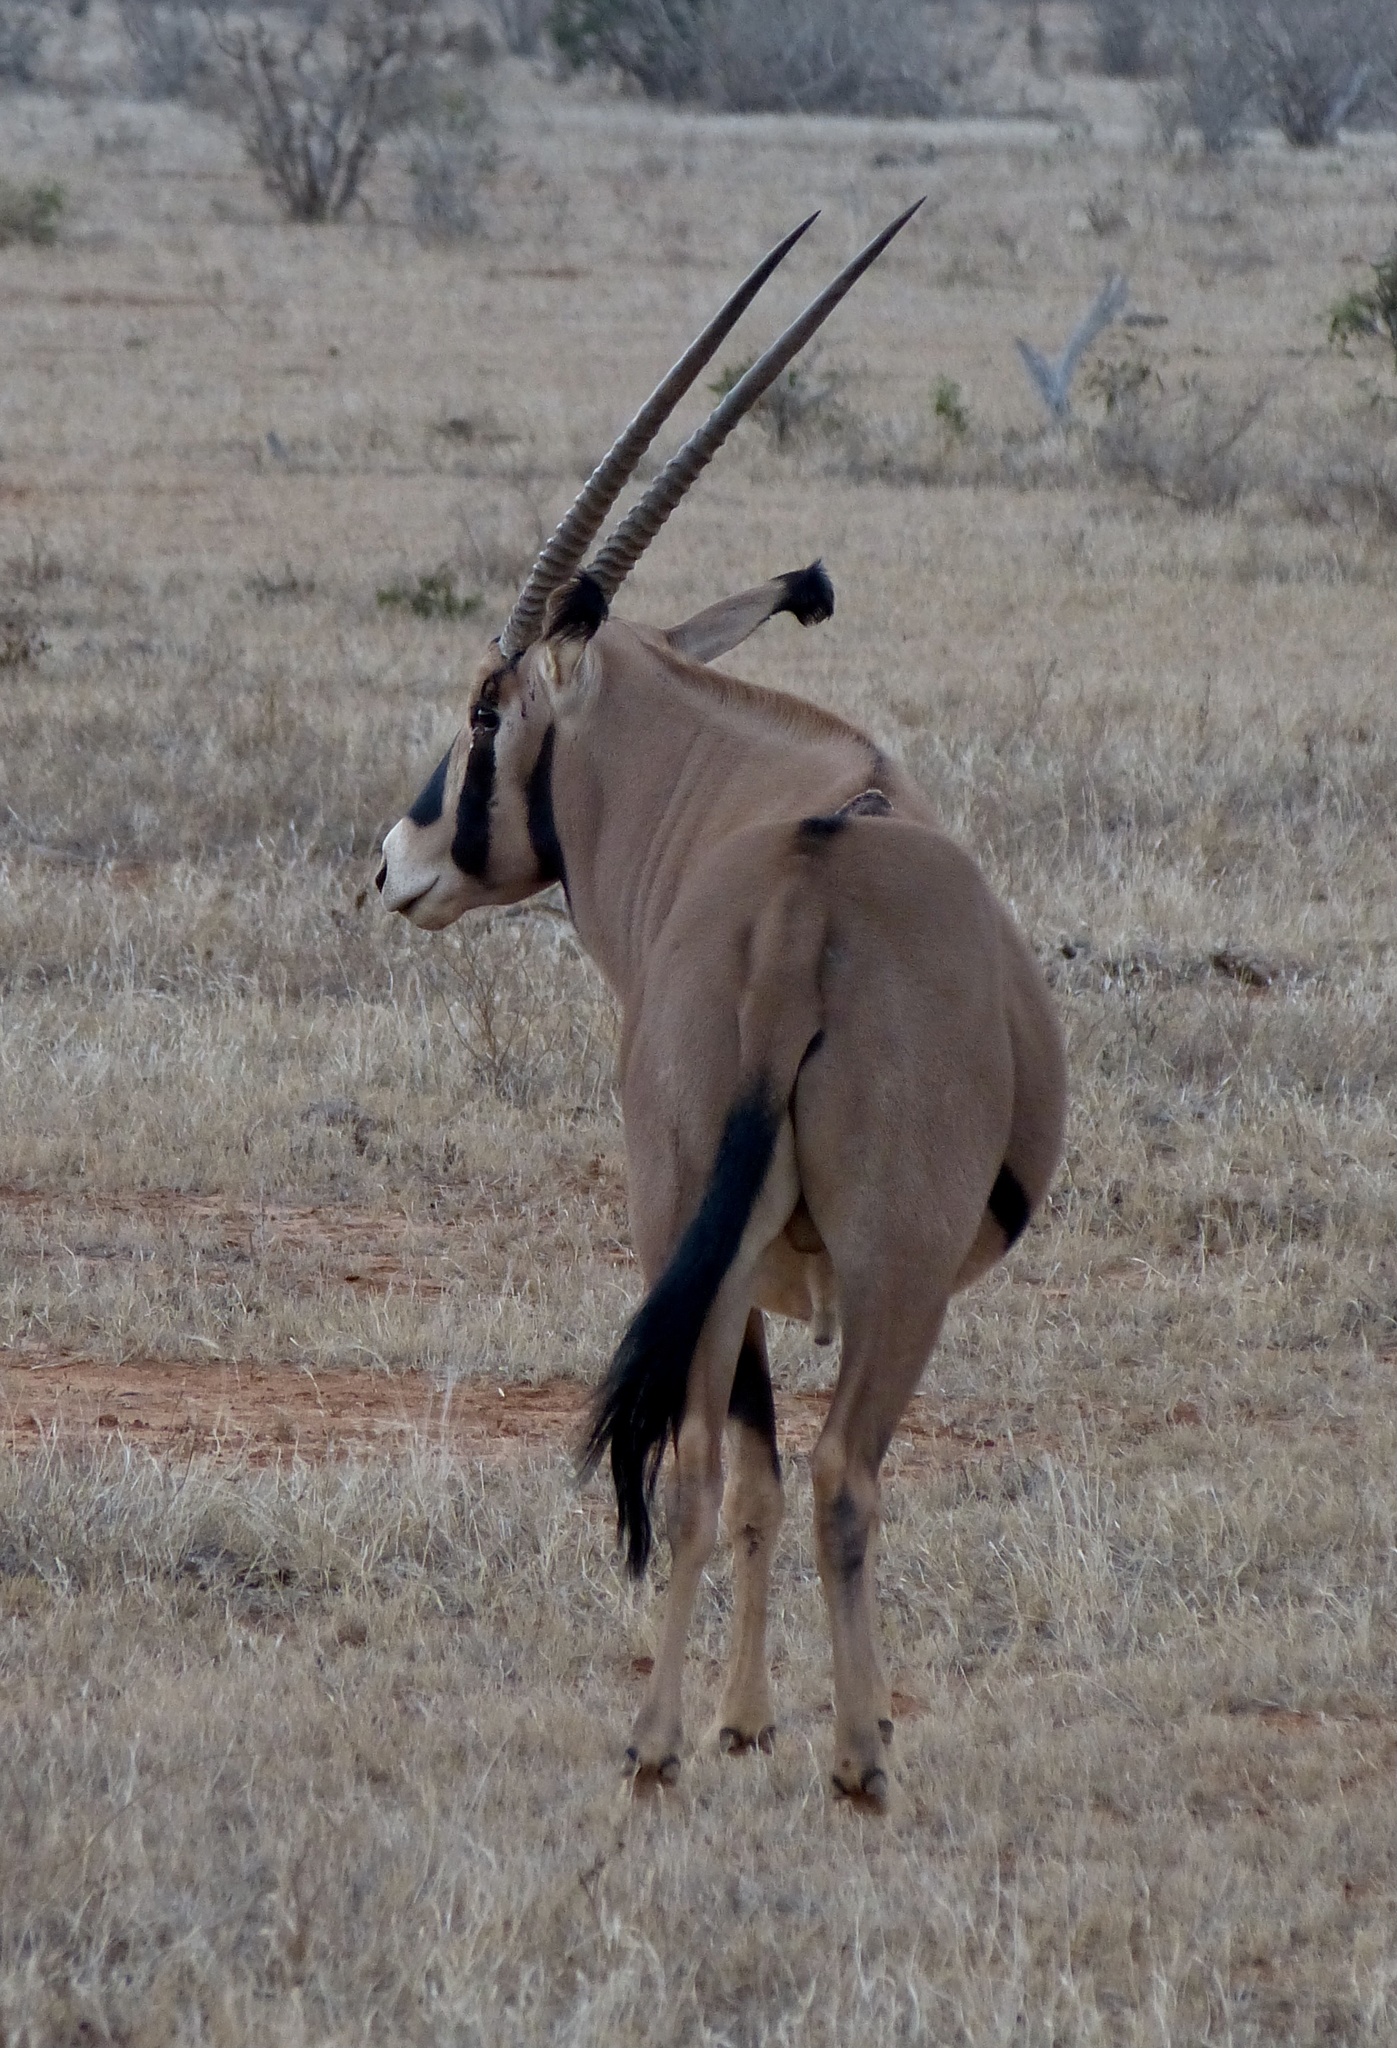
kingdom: Animalia
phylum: Chordata
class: Mammalia
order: Artiodactyla
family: Bovidae
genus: Oryx
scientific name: Oryx beisa
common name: Beisa
